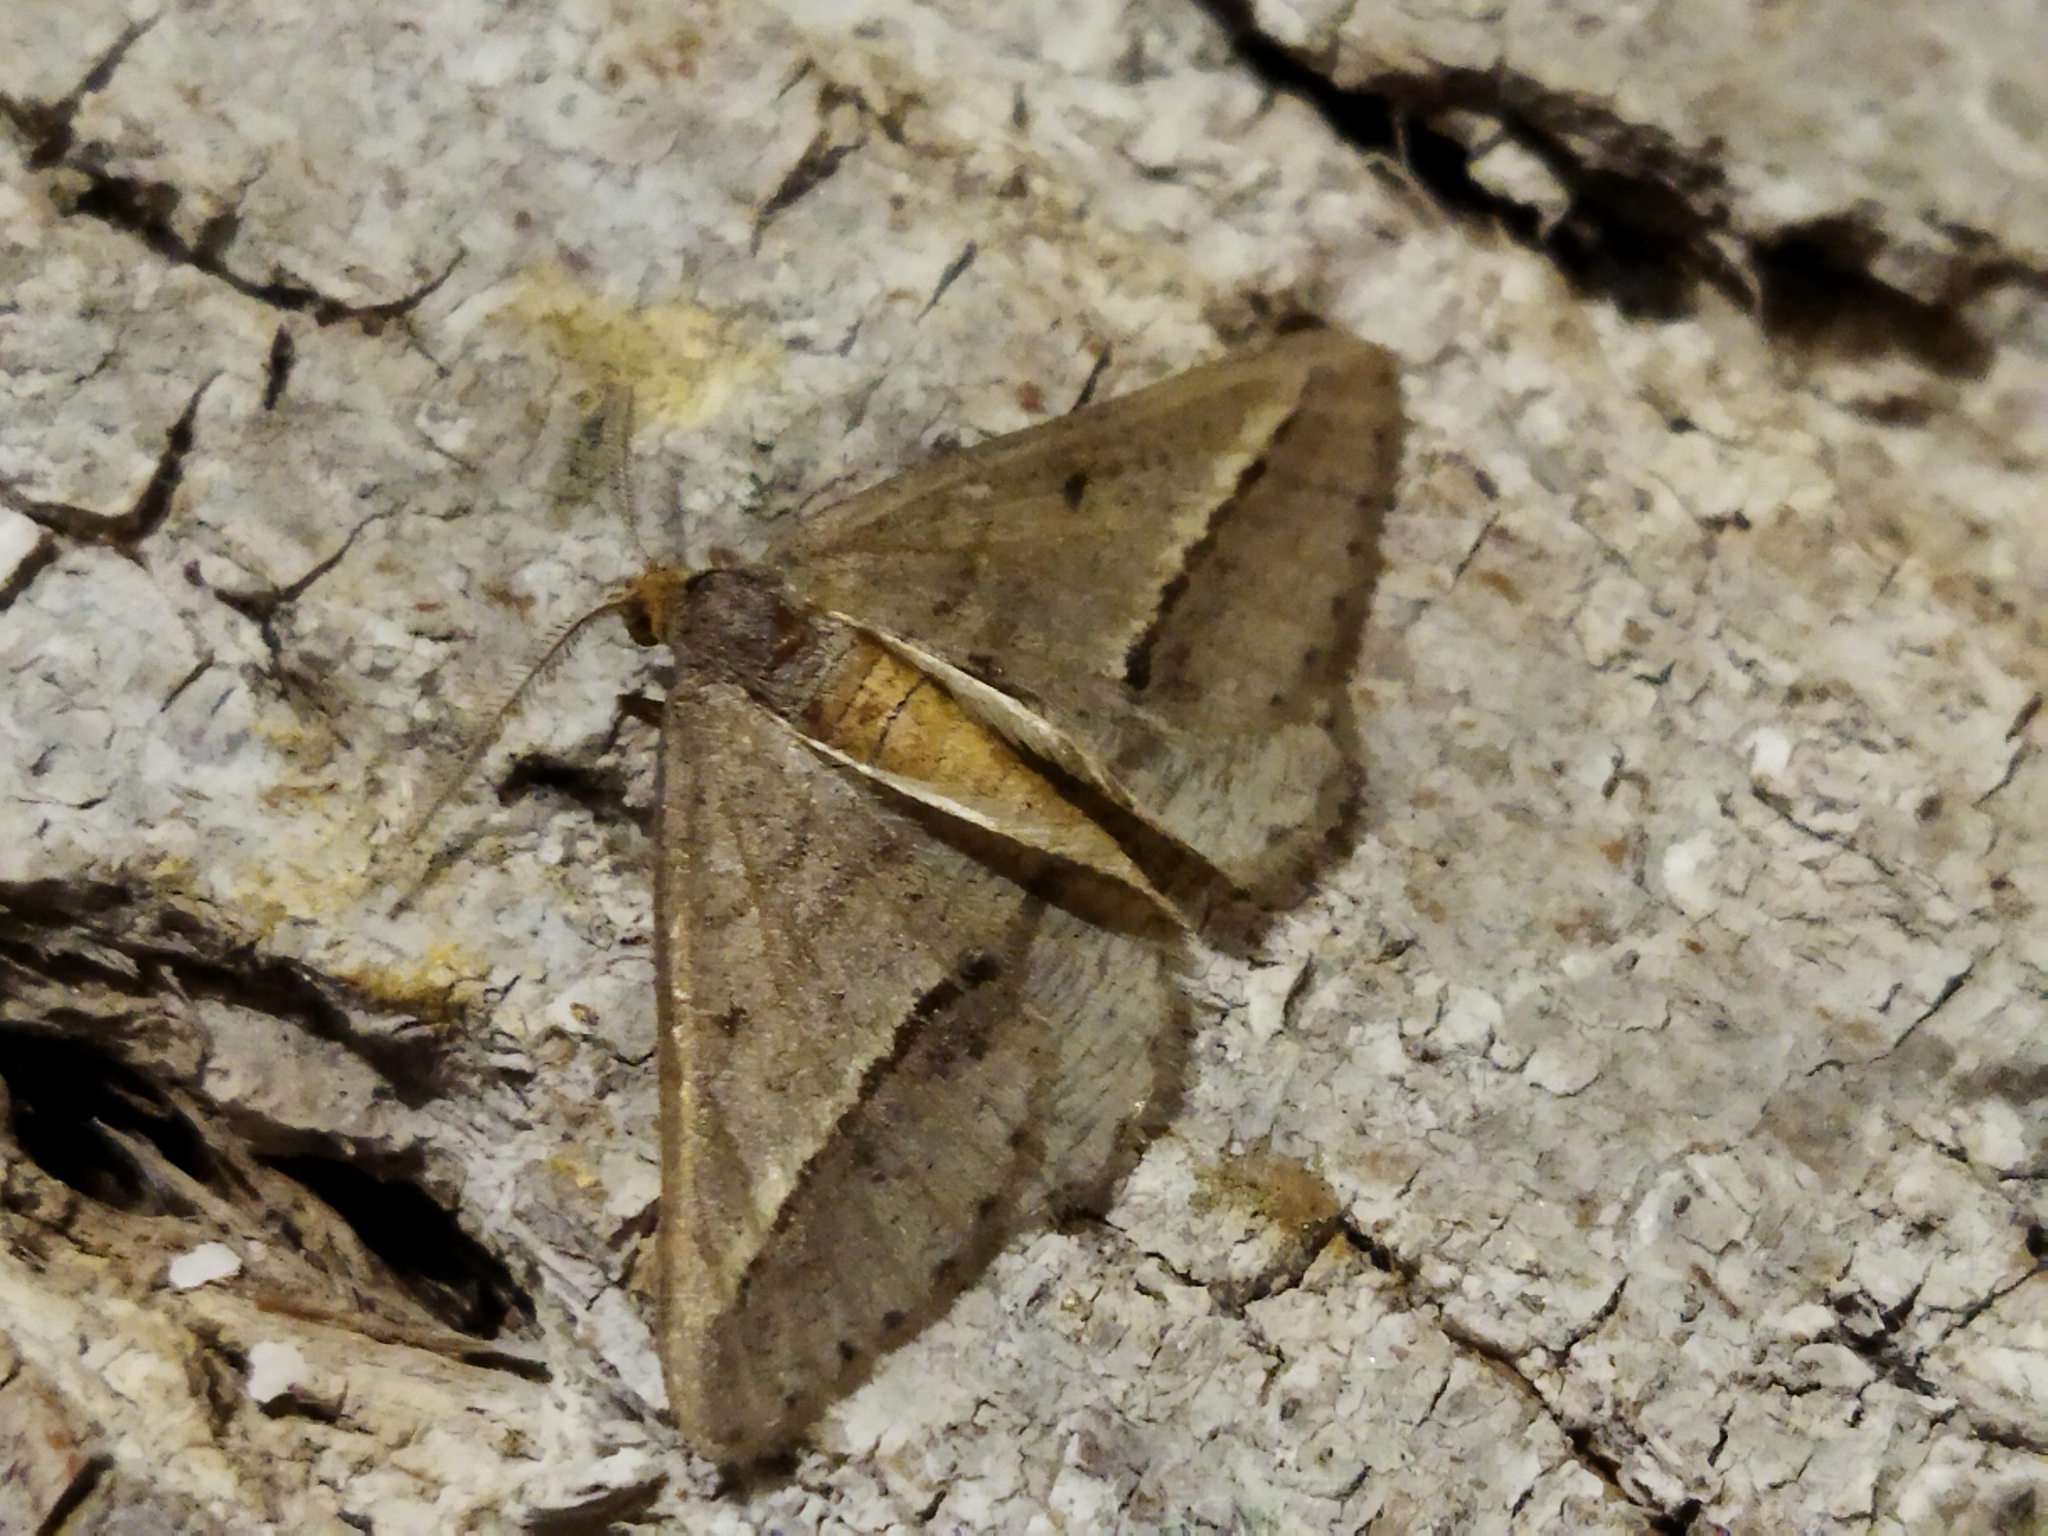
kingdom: Animalia
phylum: Arthropoda
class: Insecta
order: Lepidoptera
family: Geometridae
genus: Tephrina
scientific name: Tephrina arenacearia
